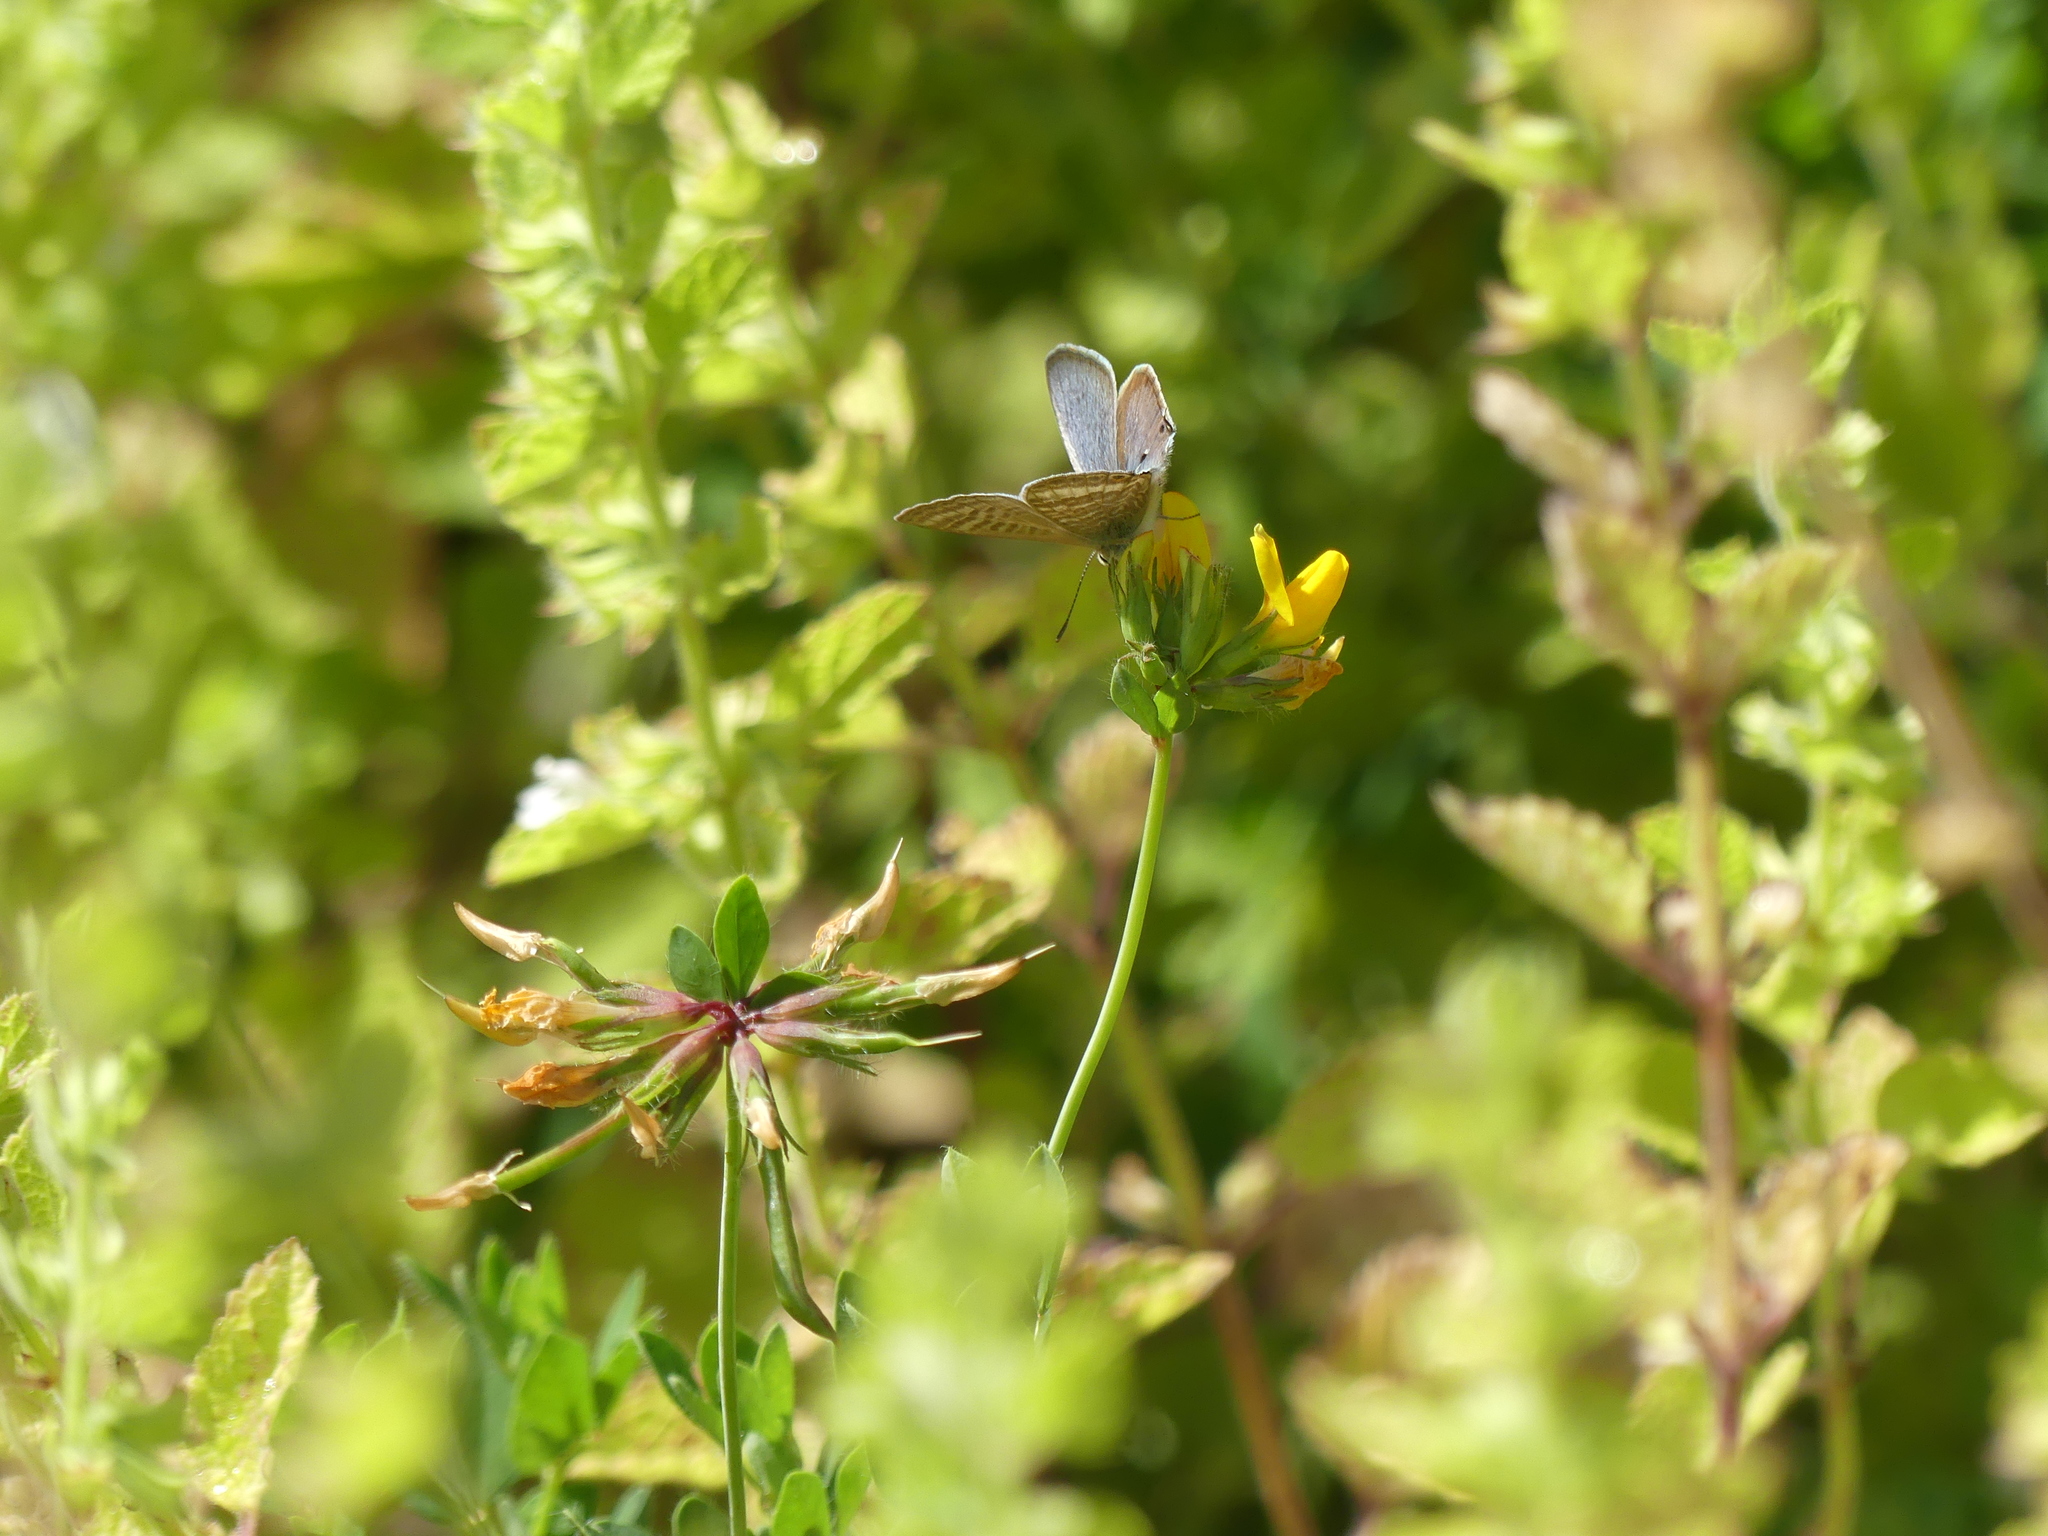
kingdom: Animalia
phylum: Arthropoda
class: Insecta
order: Lepidoptera
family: Lycaenidae
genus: Lampides
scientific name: Lampides boeticus
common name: Long-tailed blue
